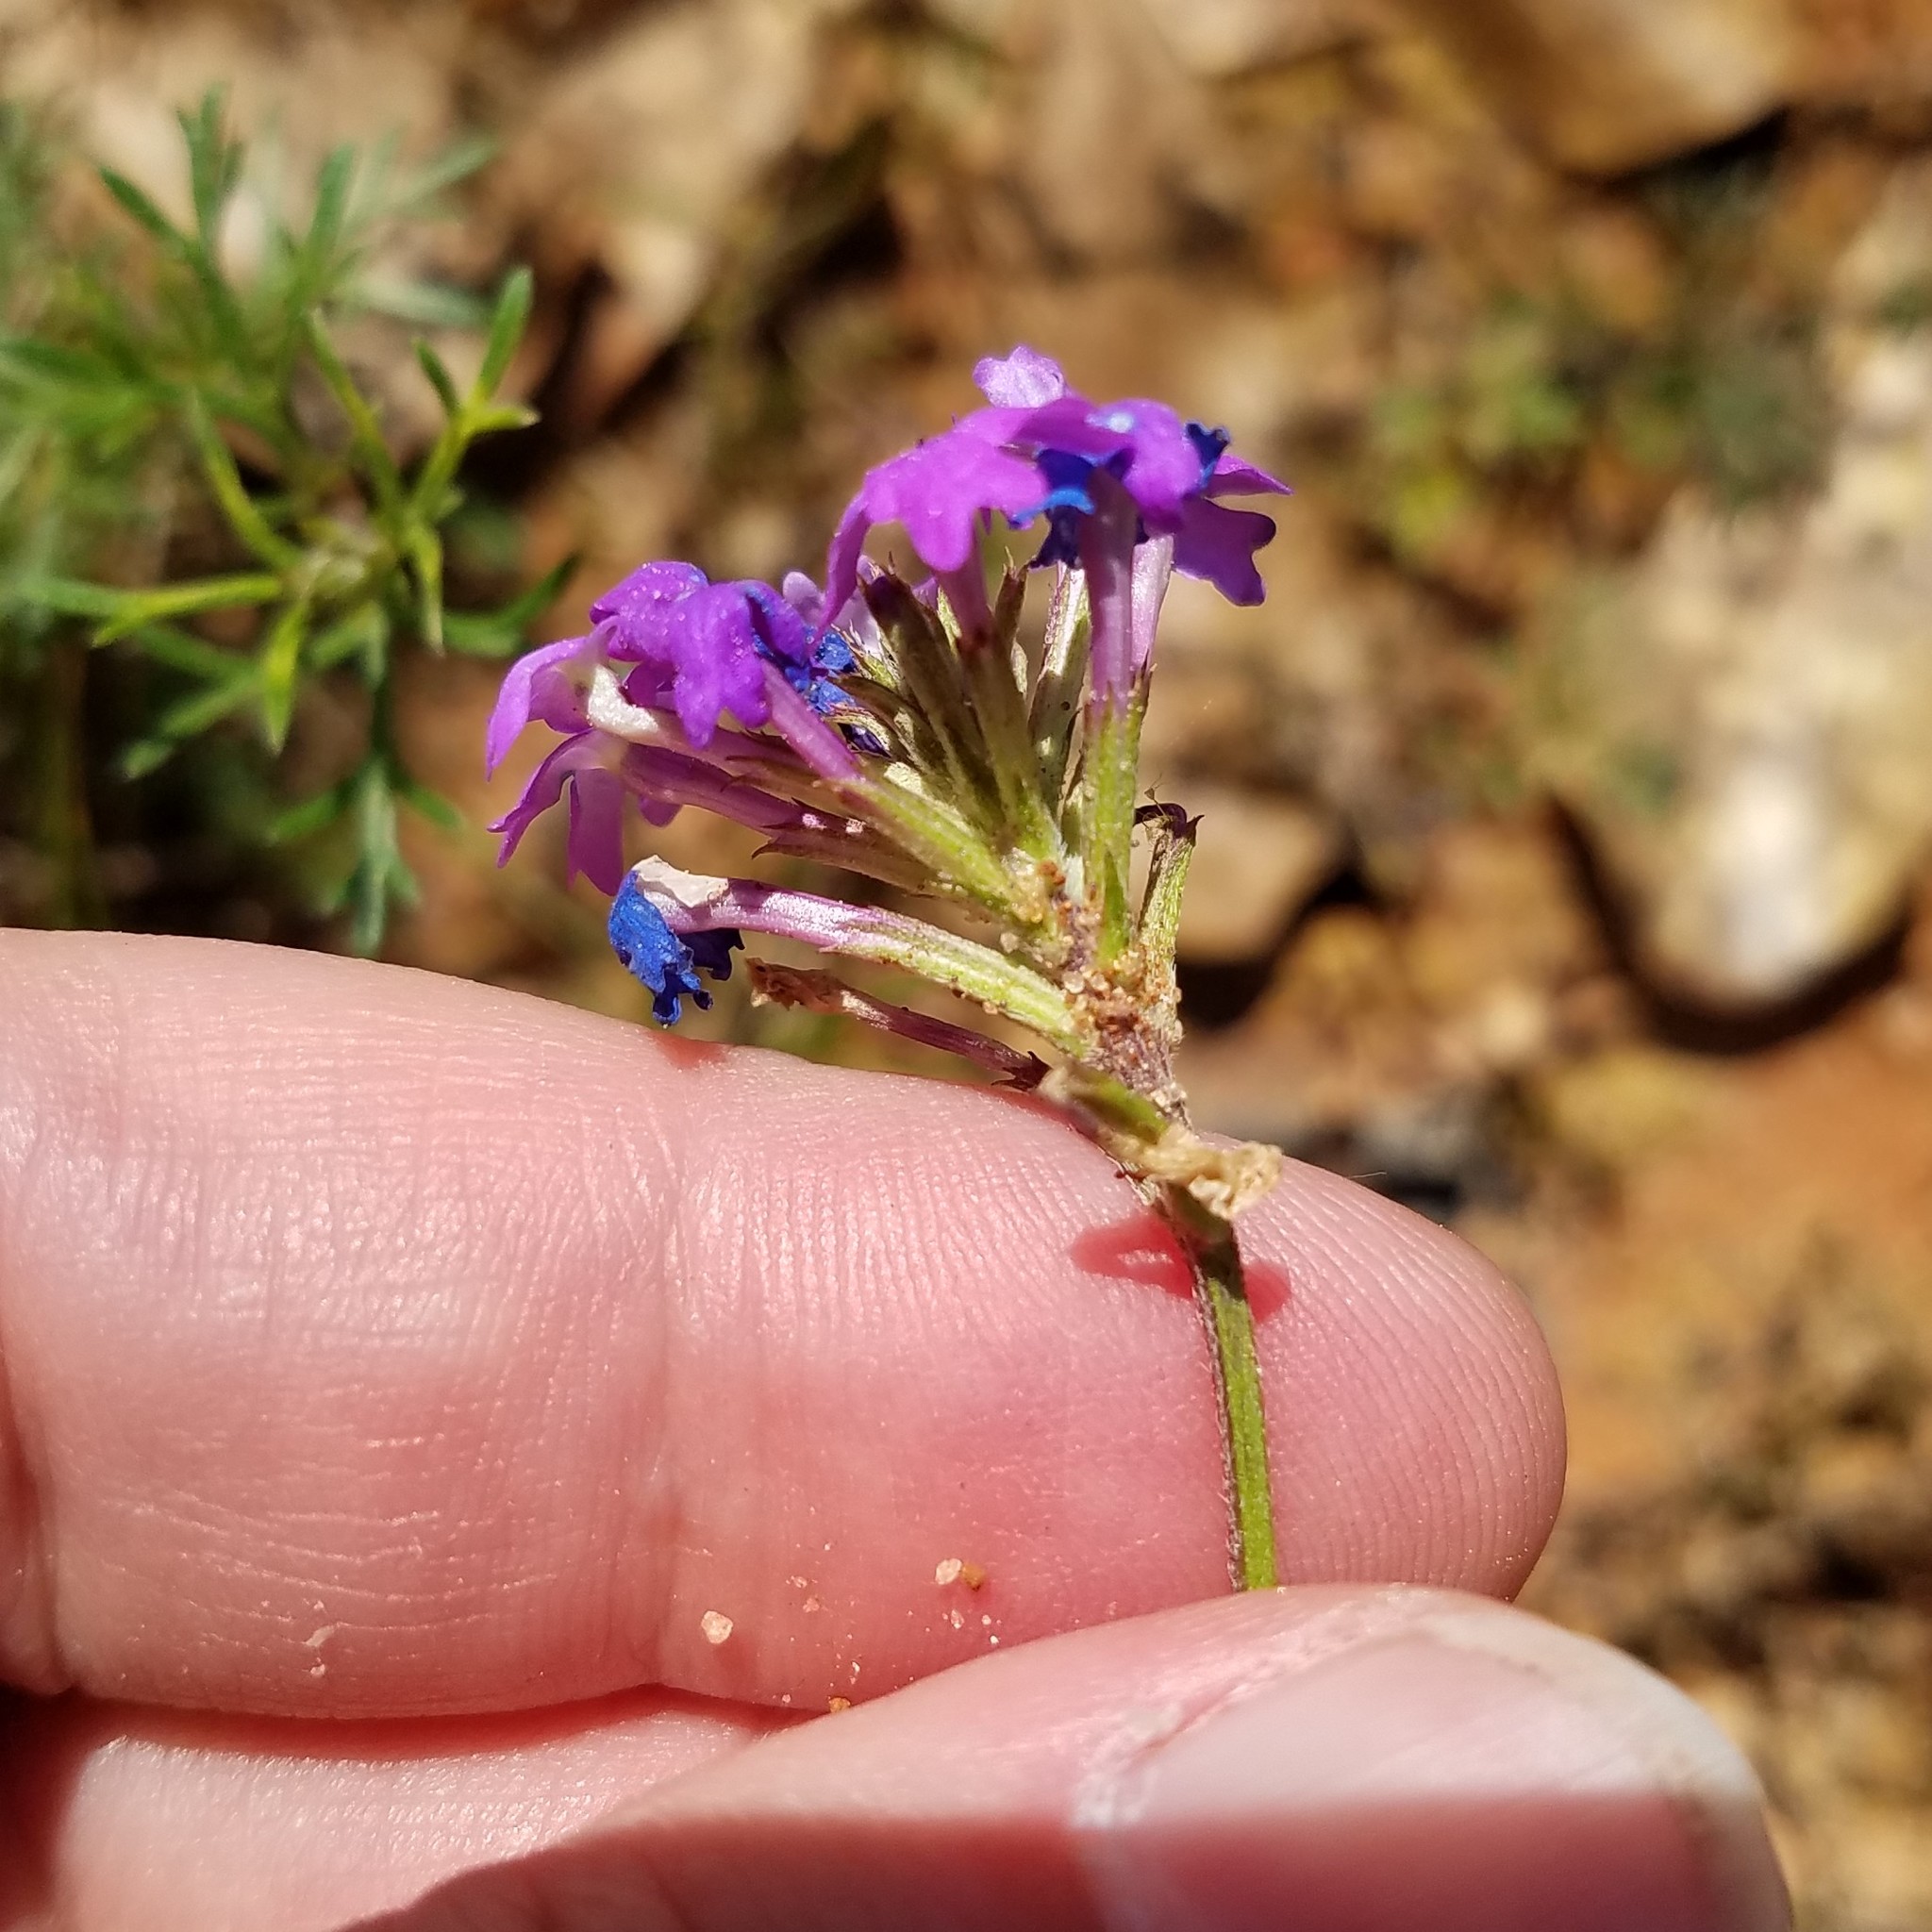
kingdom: Plantae
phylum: Tracheophyta
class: Magnoliopsida
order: Lamiales
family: Verbenaceae
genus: Verbena
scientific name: Verbena
